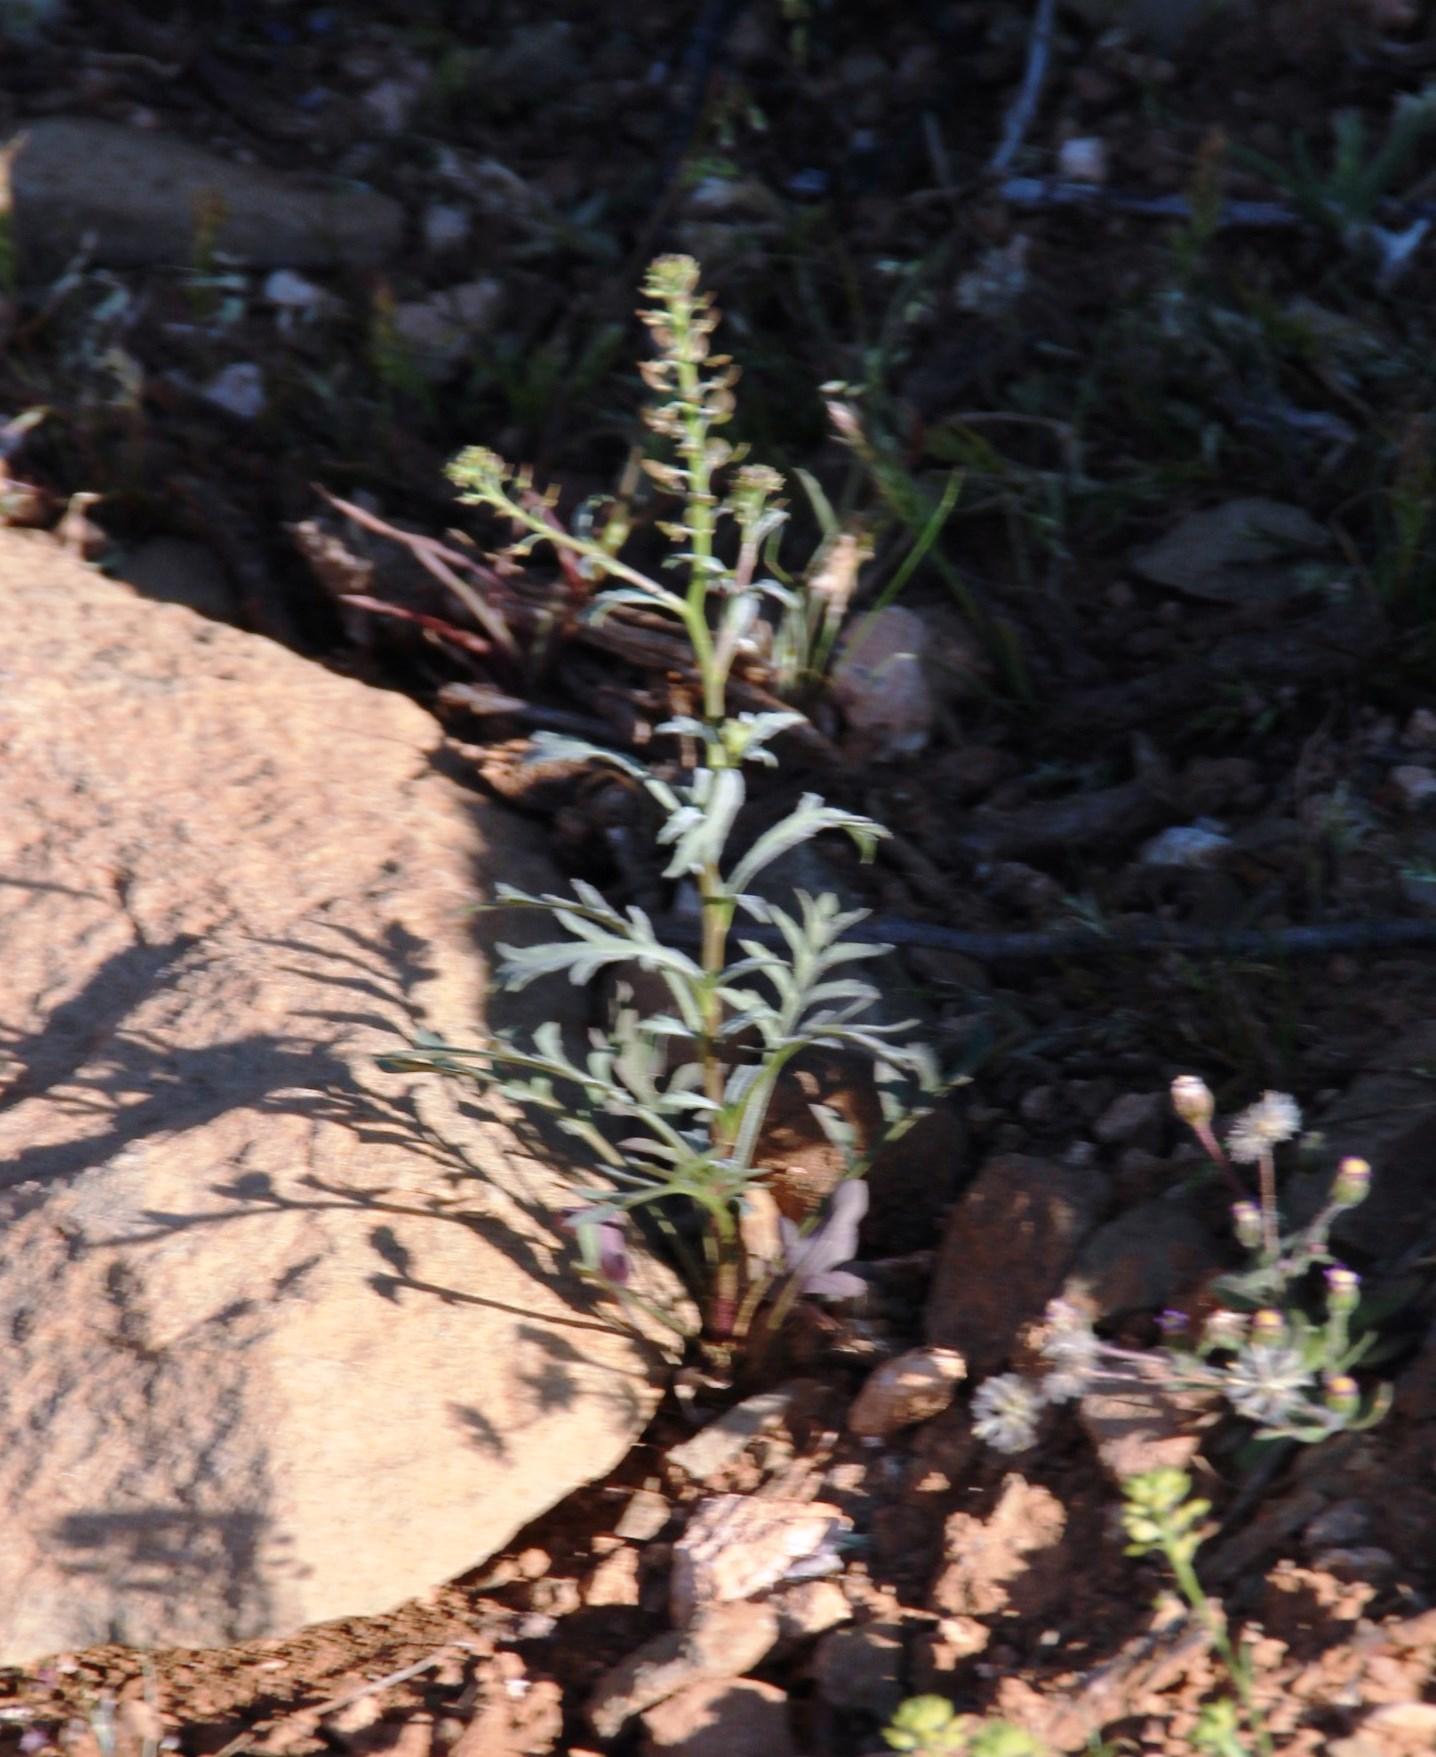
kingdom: Plantae
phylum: Tracheophyta
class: Magnoliopsida
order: Brassicales
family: Brassicaceae
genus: Lepidium
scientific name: Lepidium divaricatum
